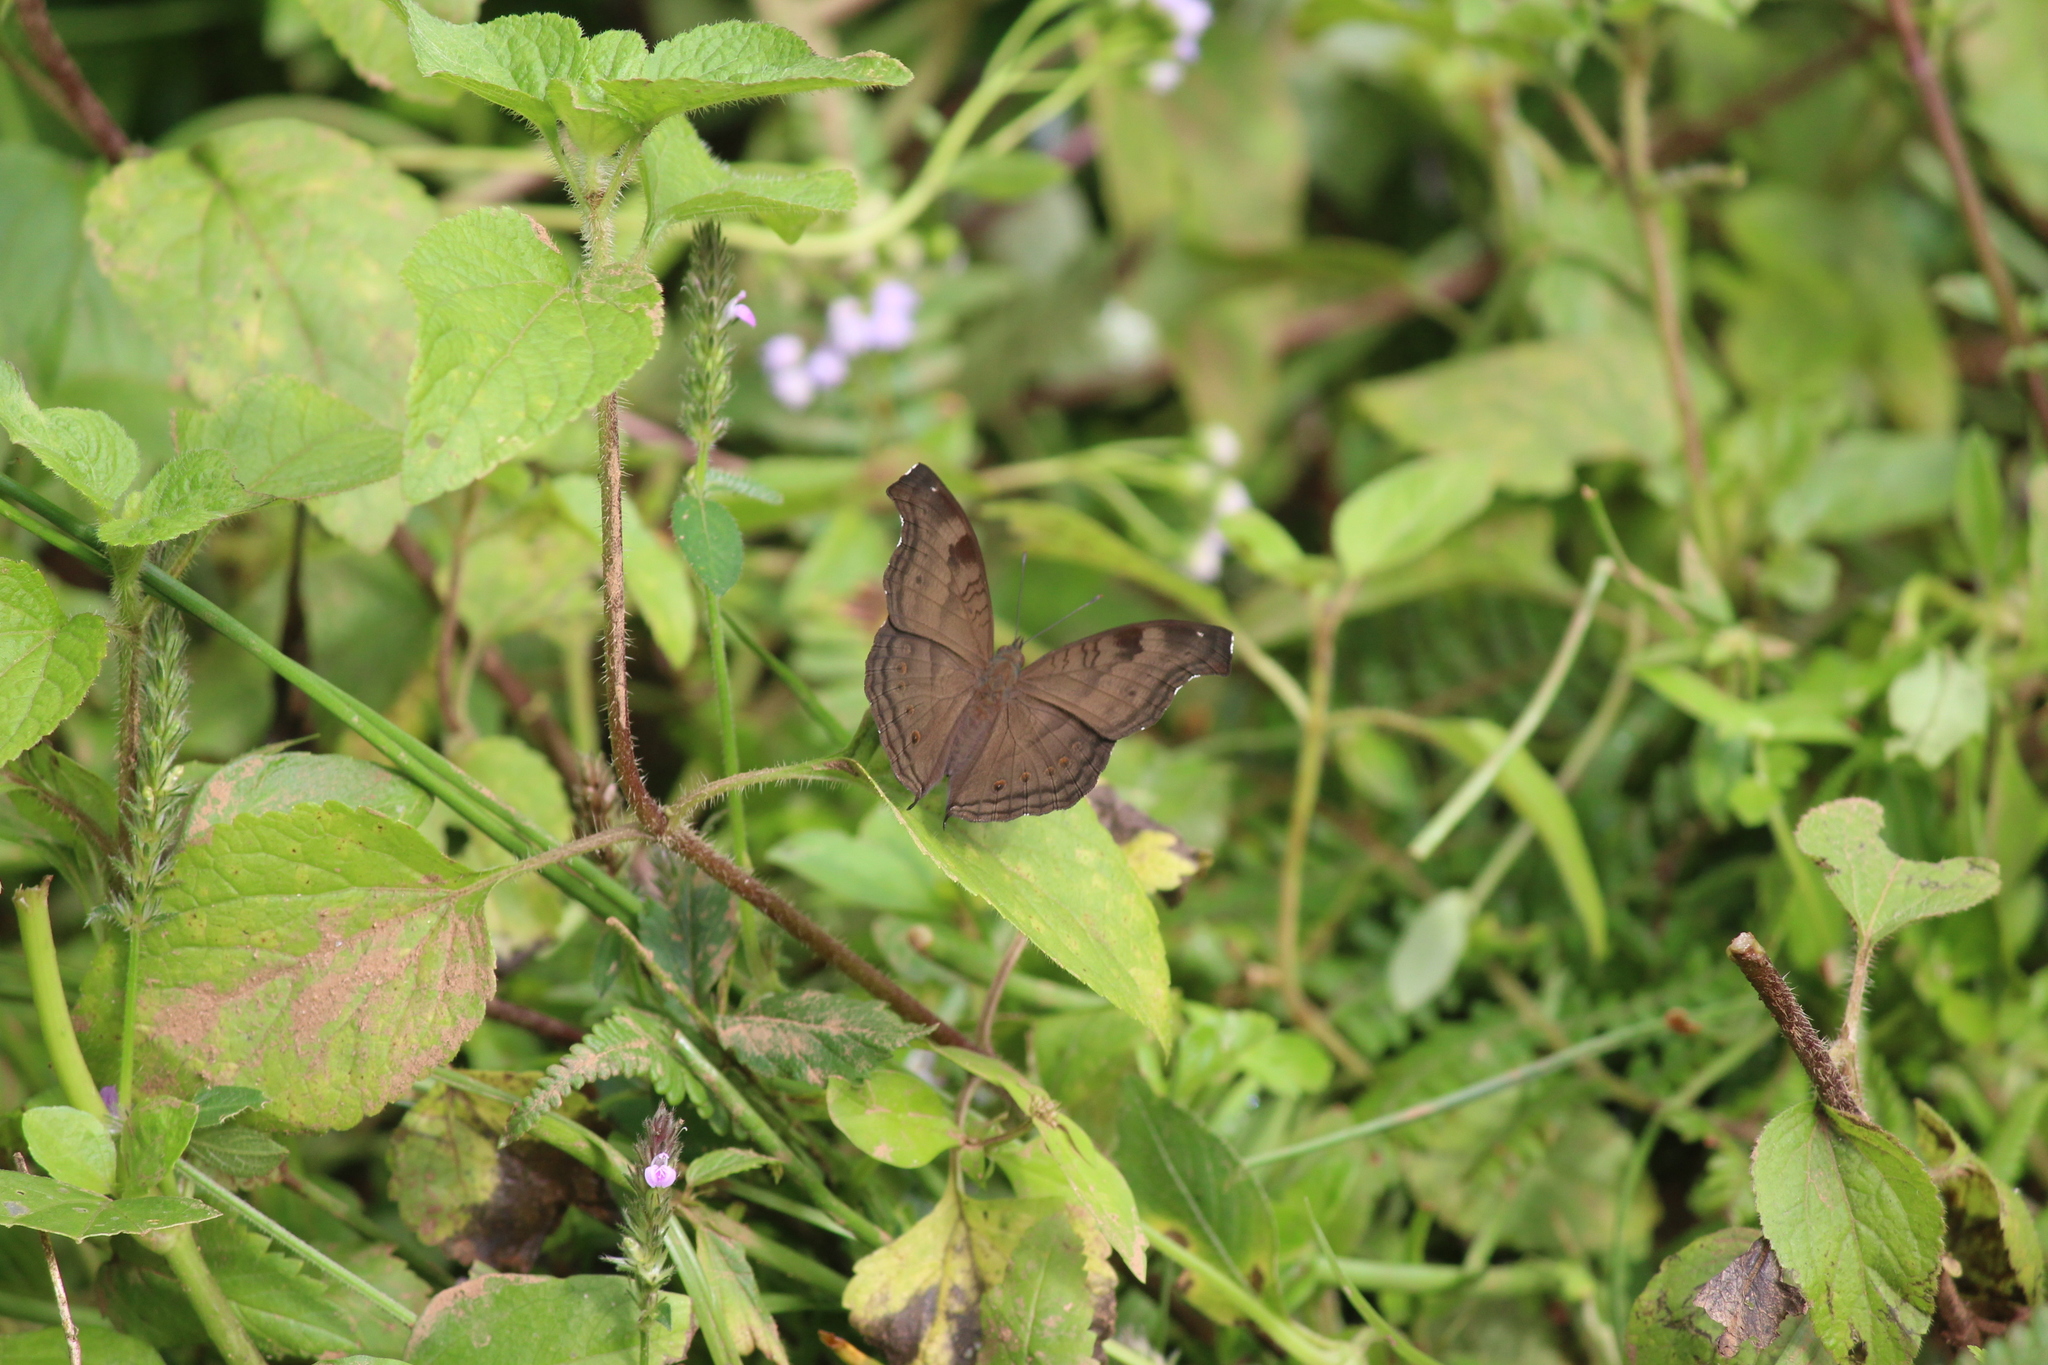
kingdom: Animalia
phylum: Arthropoda
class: Insecta
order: Lepidoptera
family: Nymphalidae
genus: Junonia
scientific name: Junonia iphita
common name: Chocolate pansy
